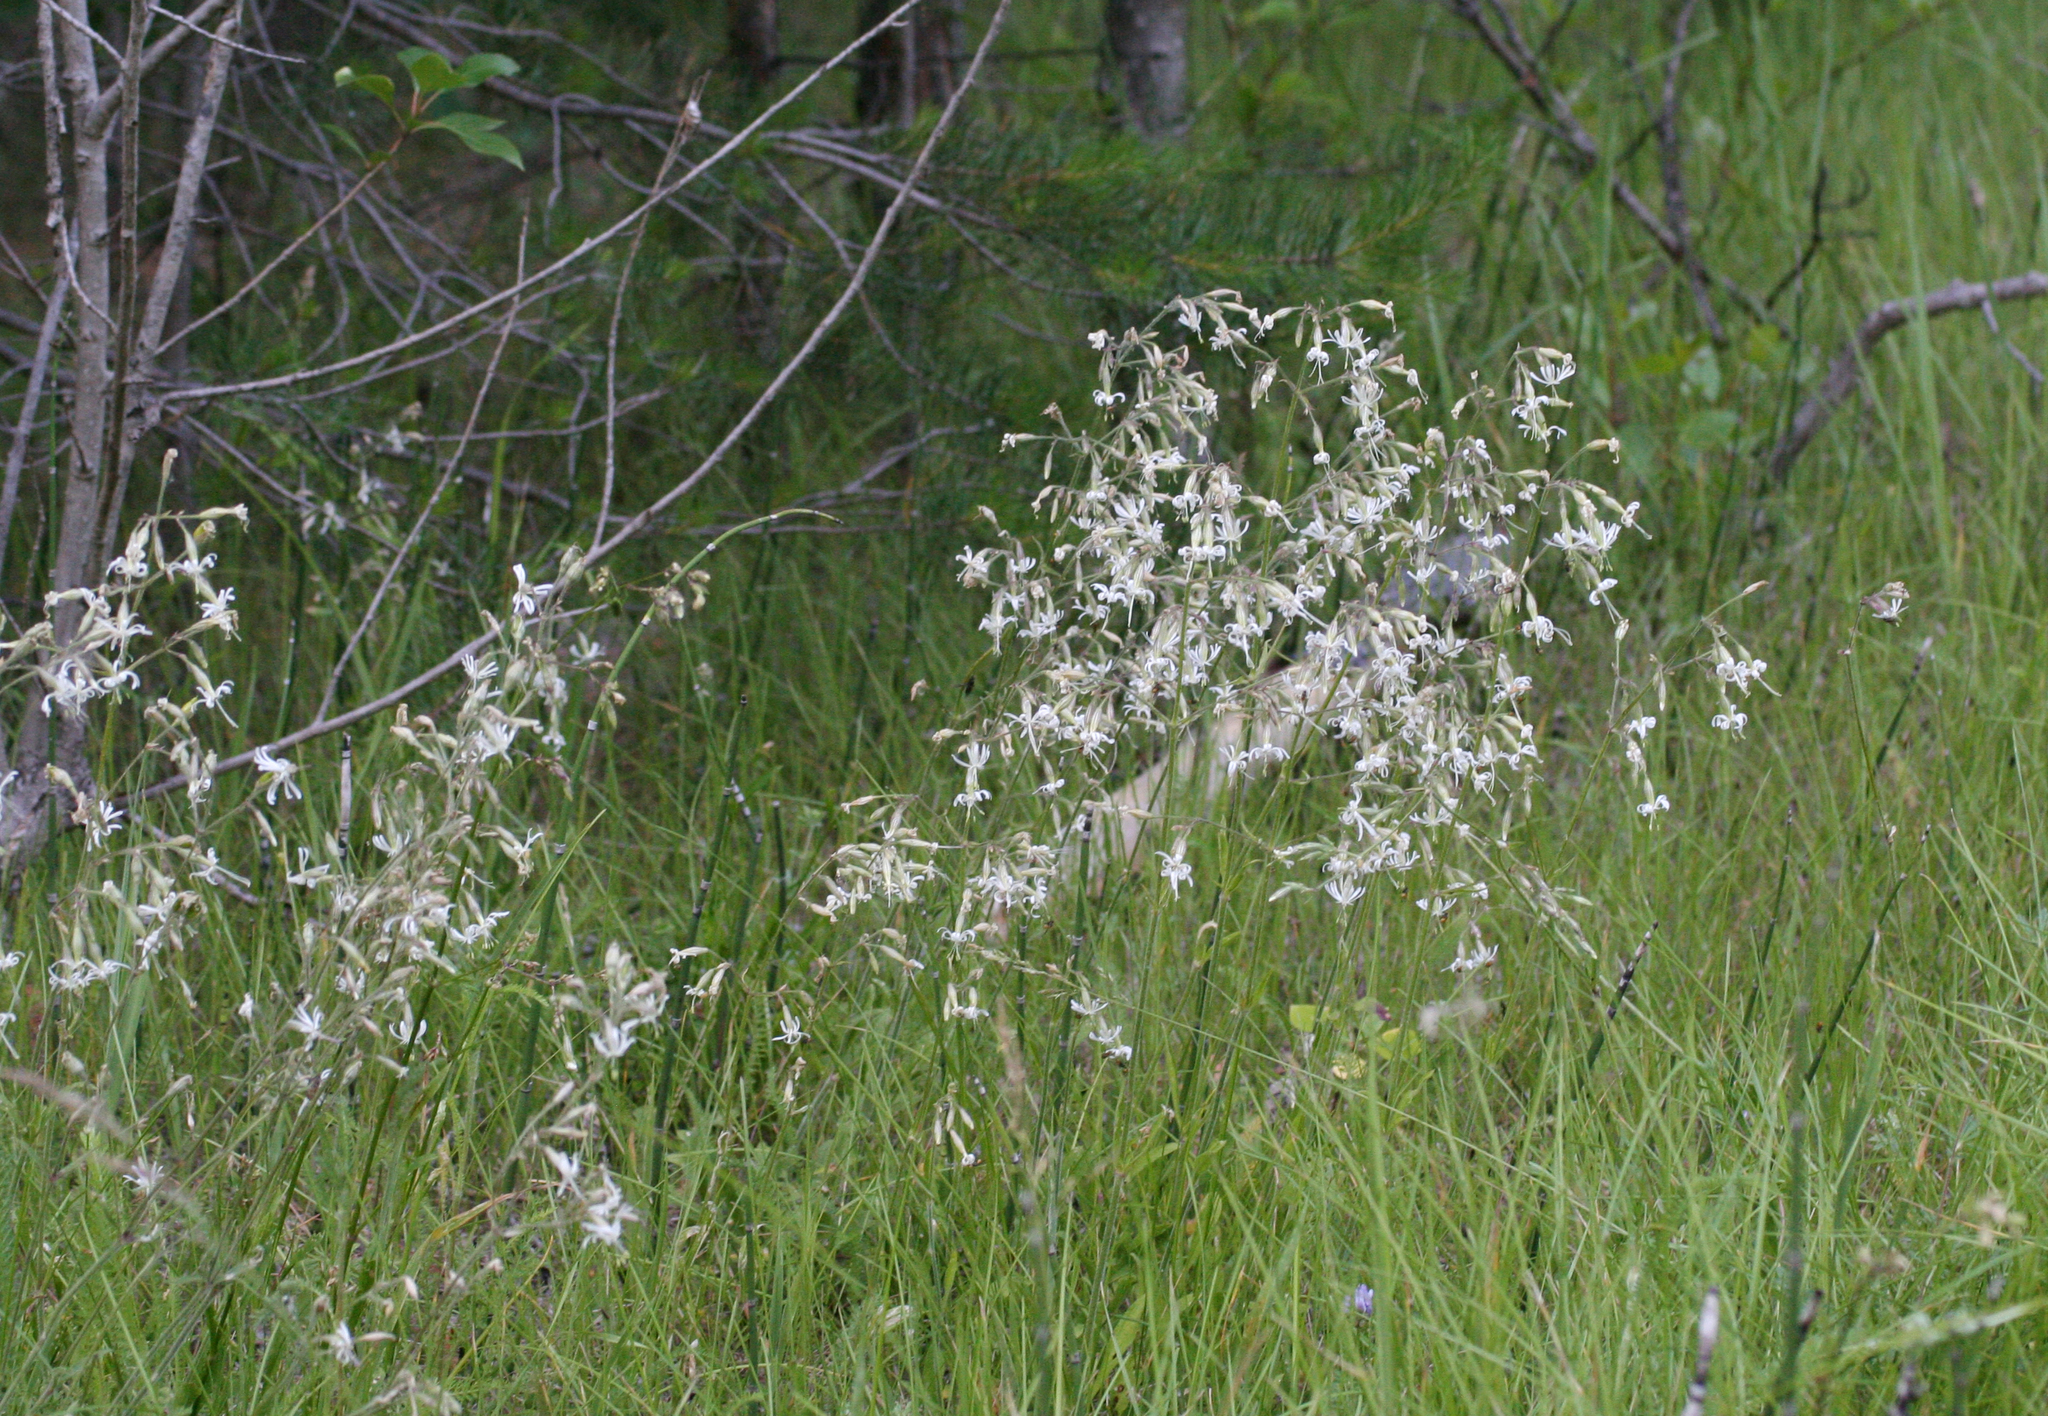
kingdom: Plantae
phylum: Tracheophyta
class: Magnoliopsida
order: Caryophyllales
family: Caryophyllaceae
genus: Silene
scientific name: Silene nutans
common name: Nottingham catchfly
